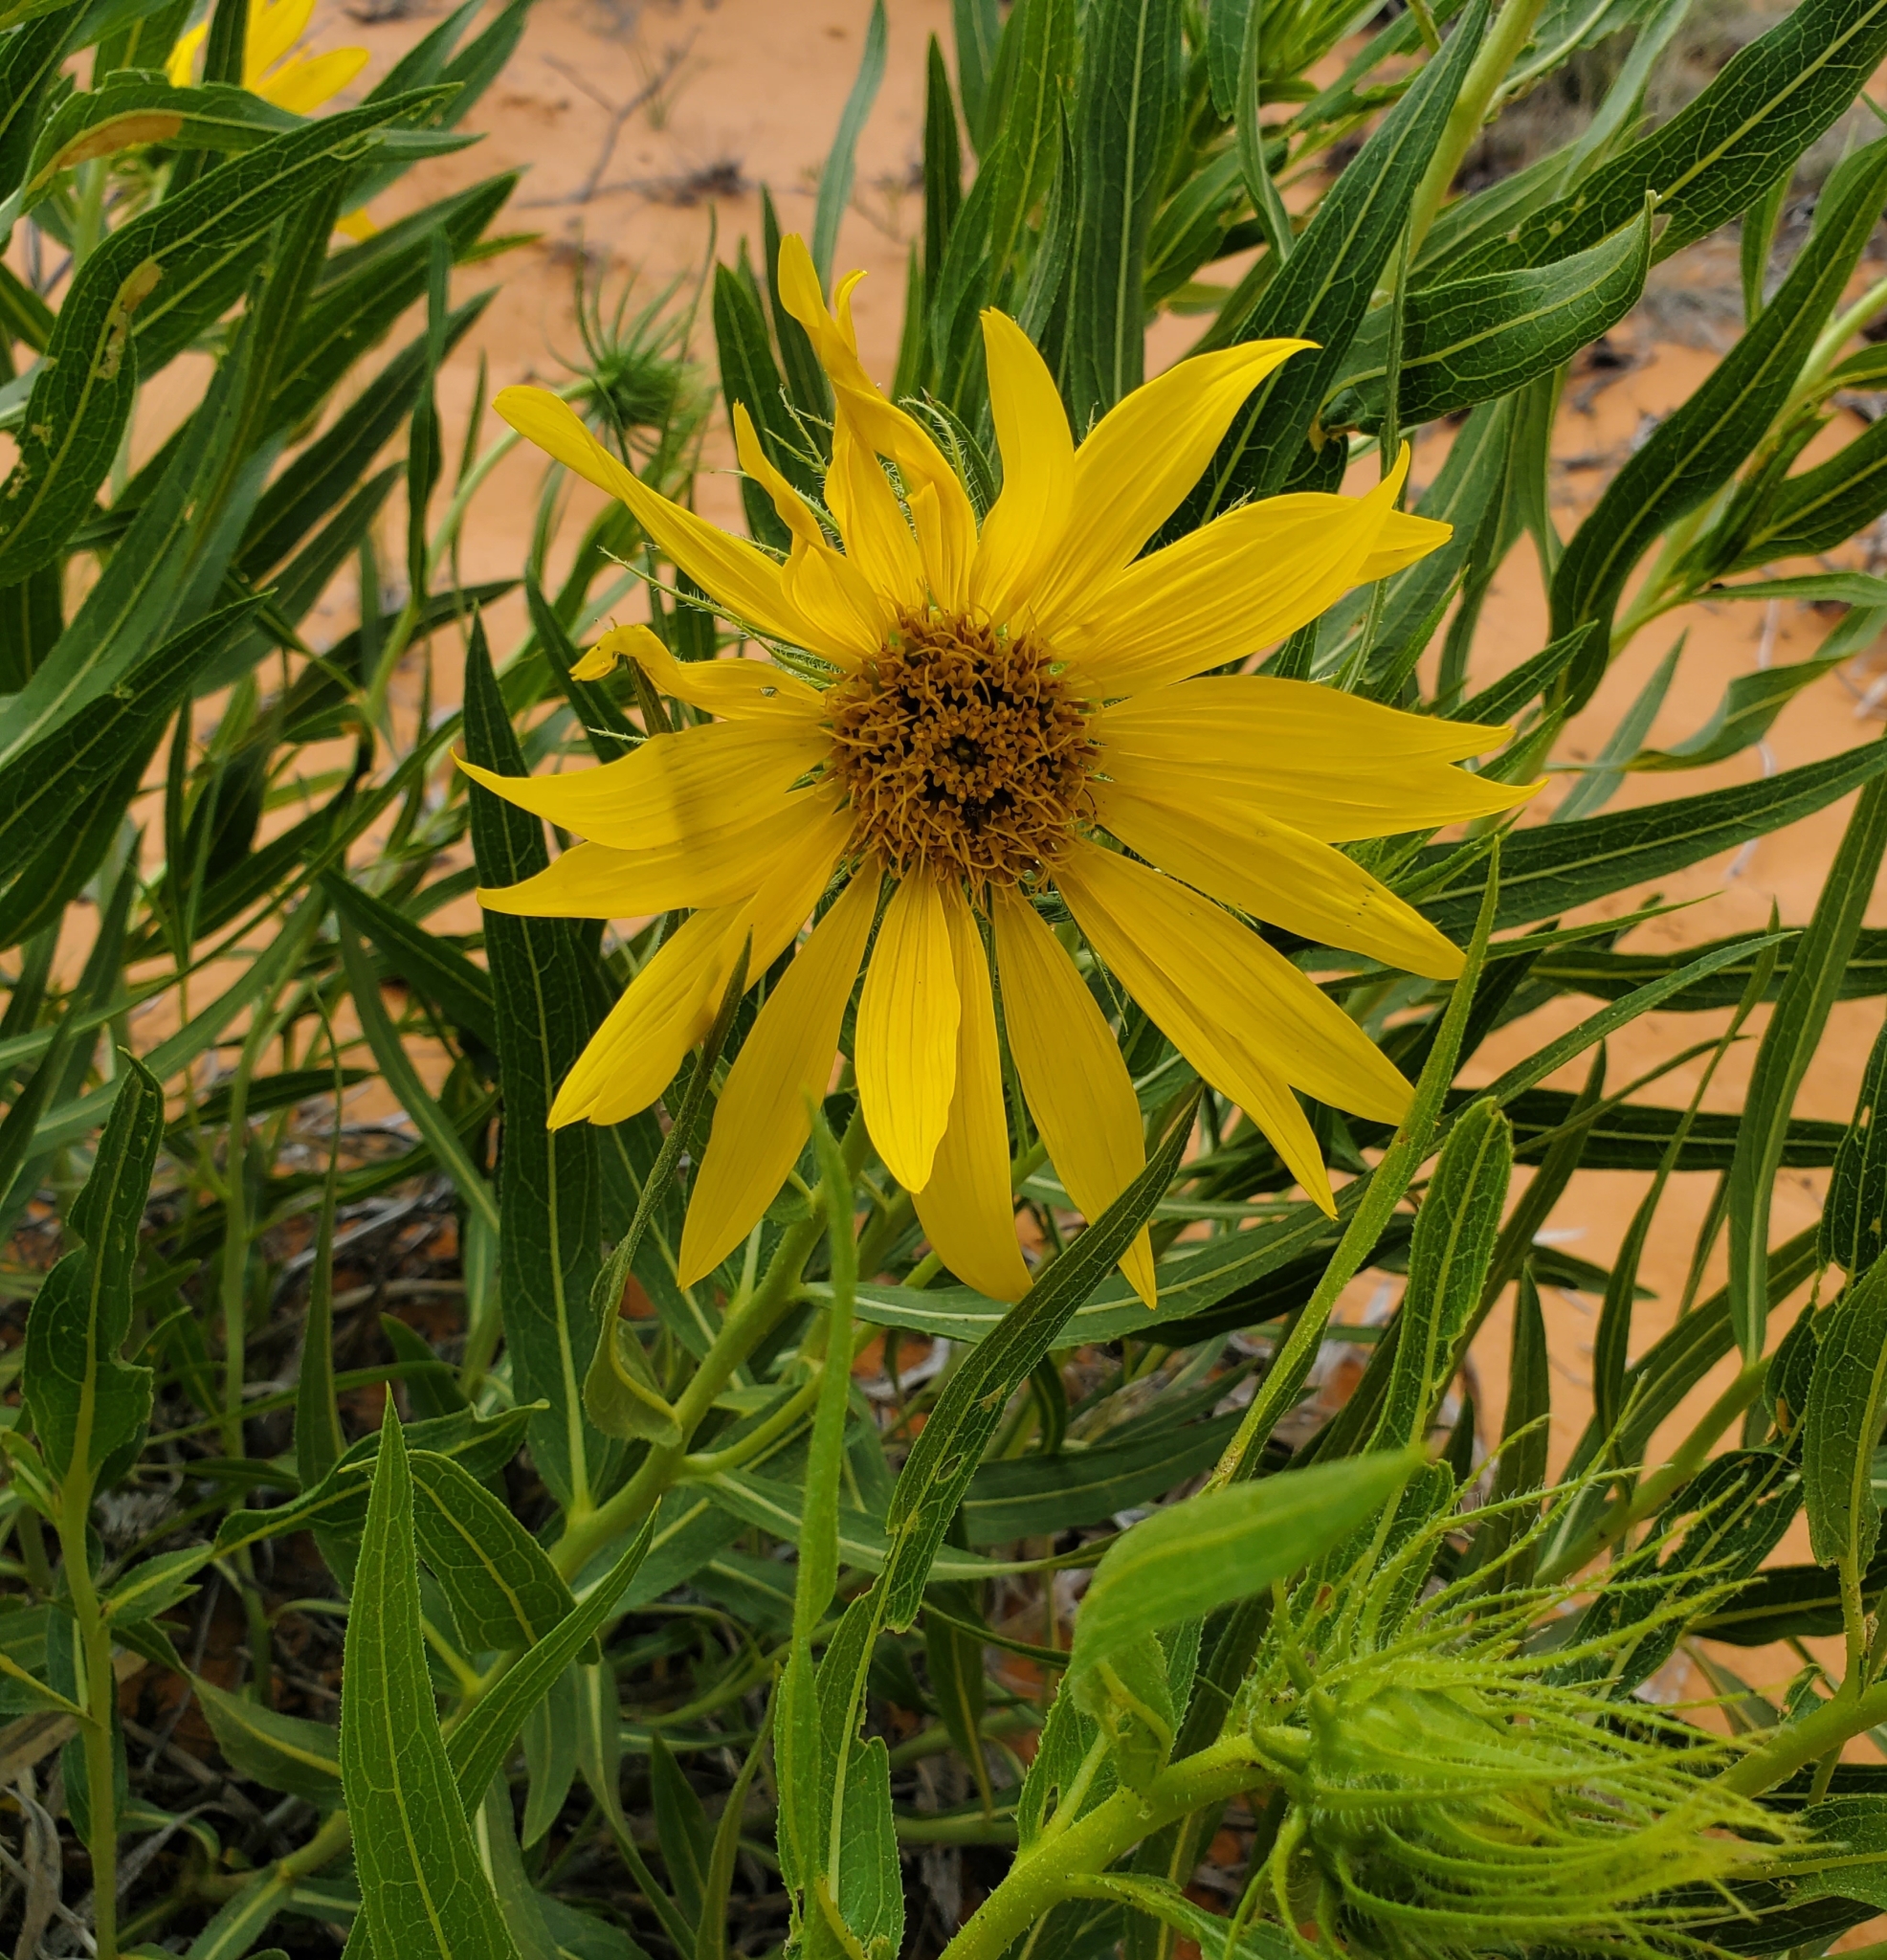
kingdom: Plantae
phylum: Tracheophyta
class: Magnoliopsida
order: Asterales
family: Asteraceae
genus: Scabrethia
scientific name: Scabrethia scabra
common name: Rough mules's-ears
